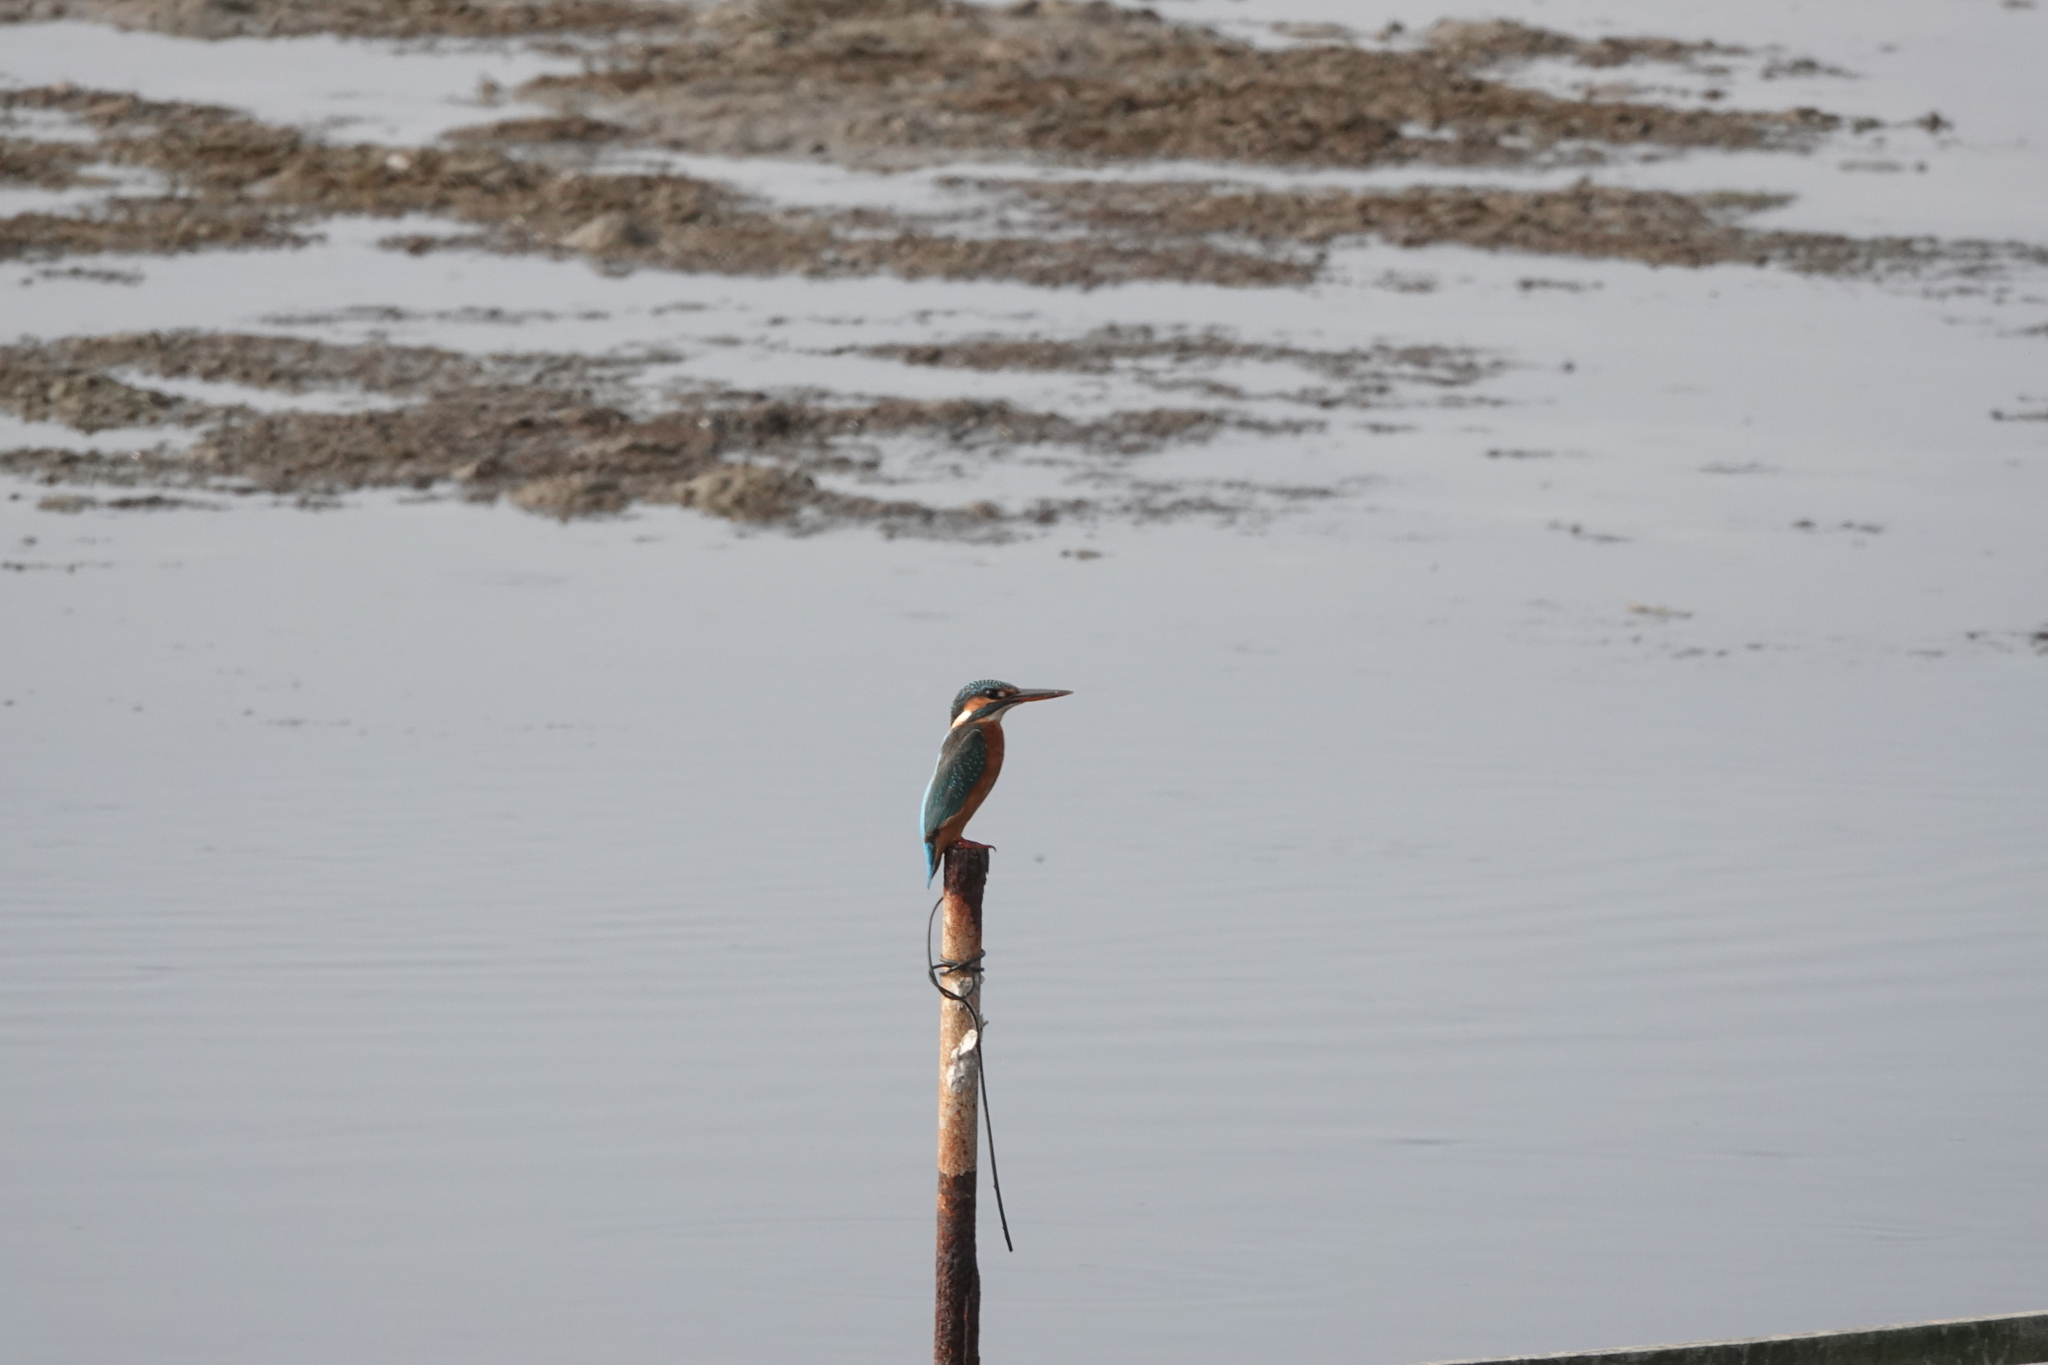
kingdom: Animalia
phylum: Chordata
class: Aves
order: Coraciiformes
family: Alcedinidae
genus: Alcedo
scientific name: Alcedo atthis
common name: Common kingfisher
